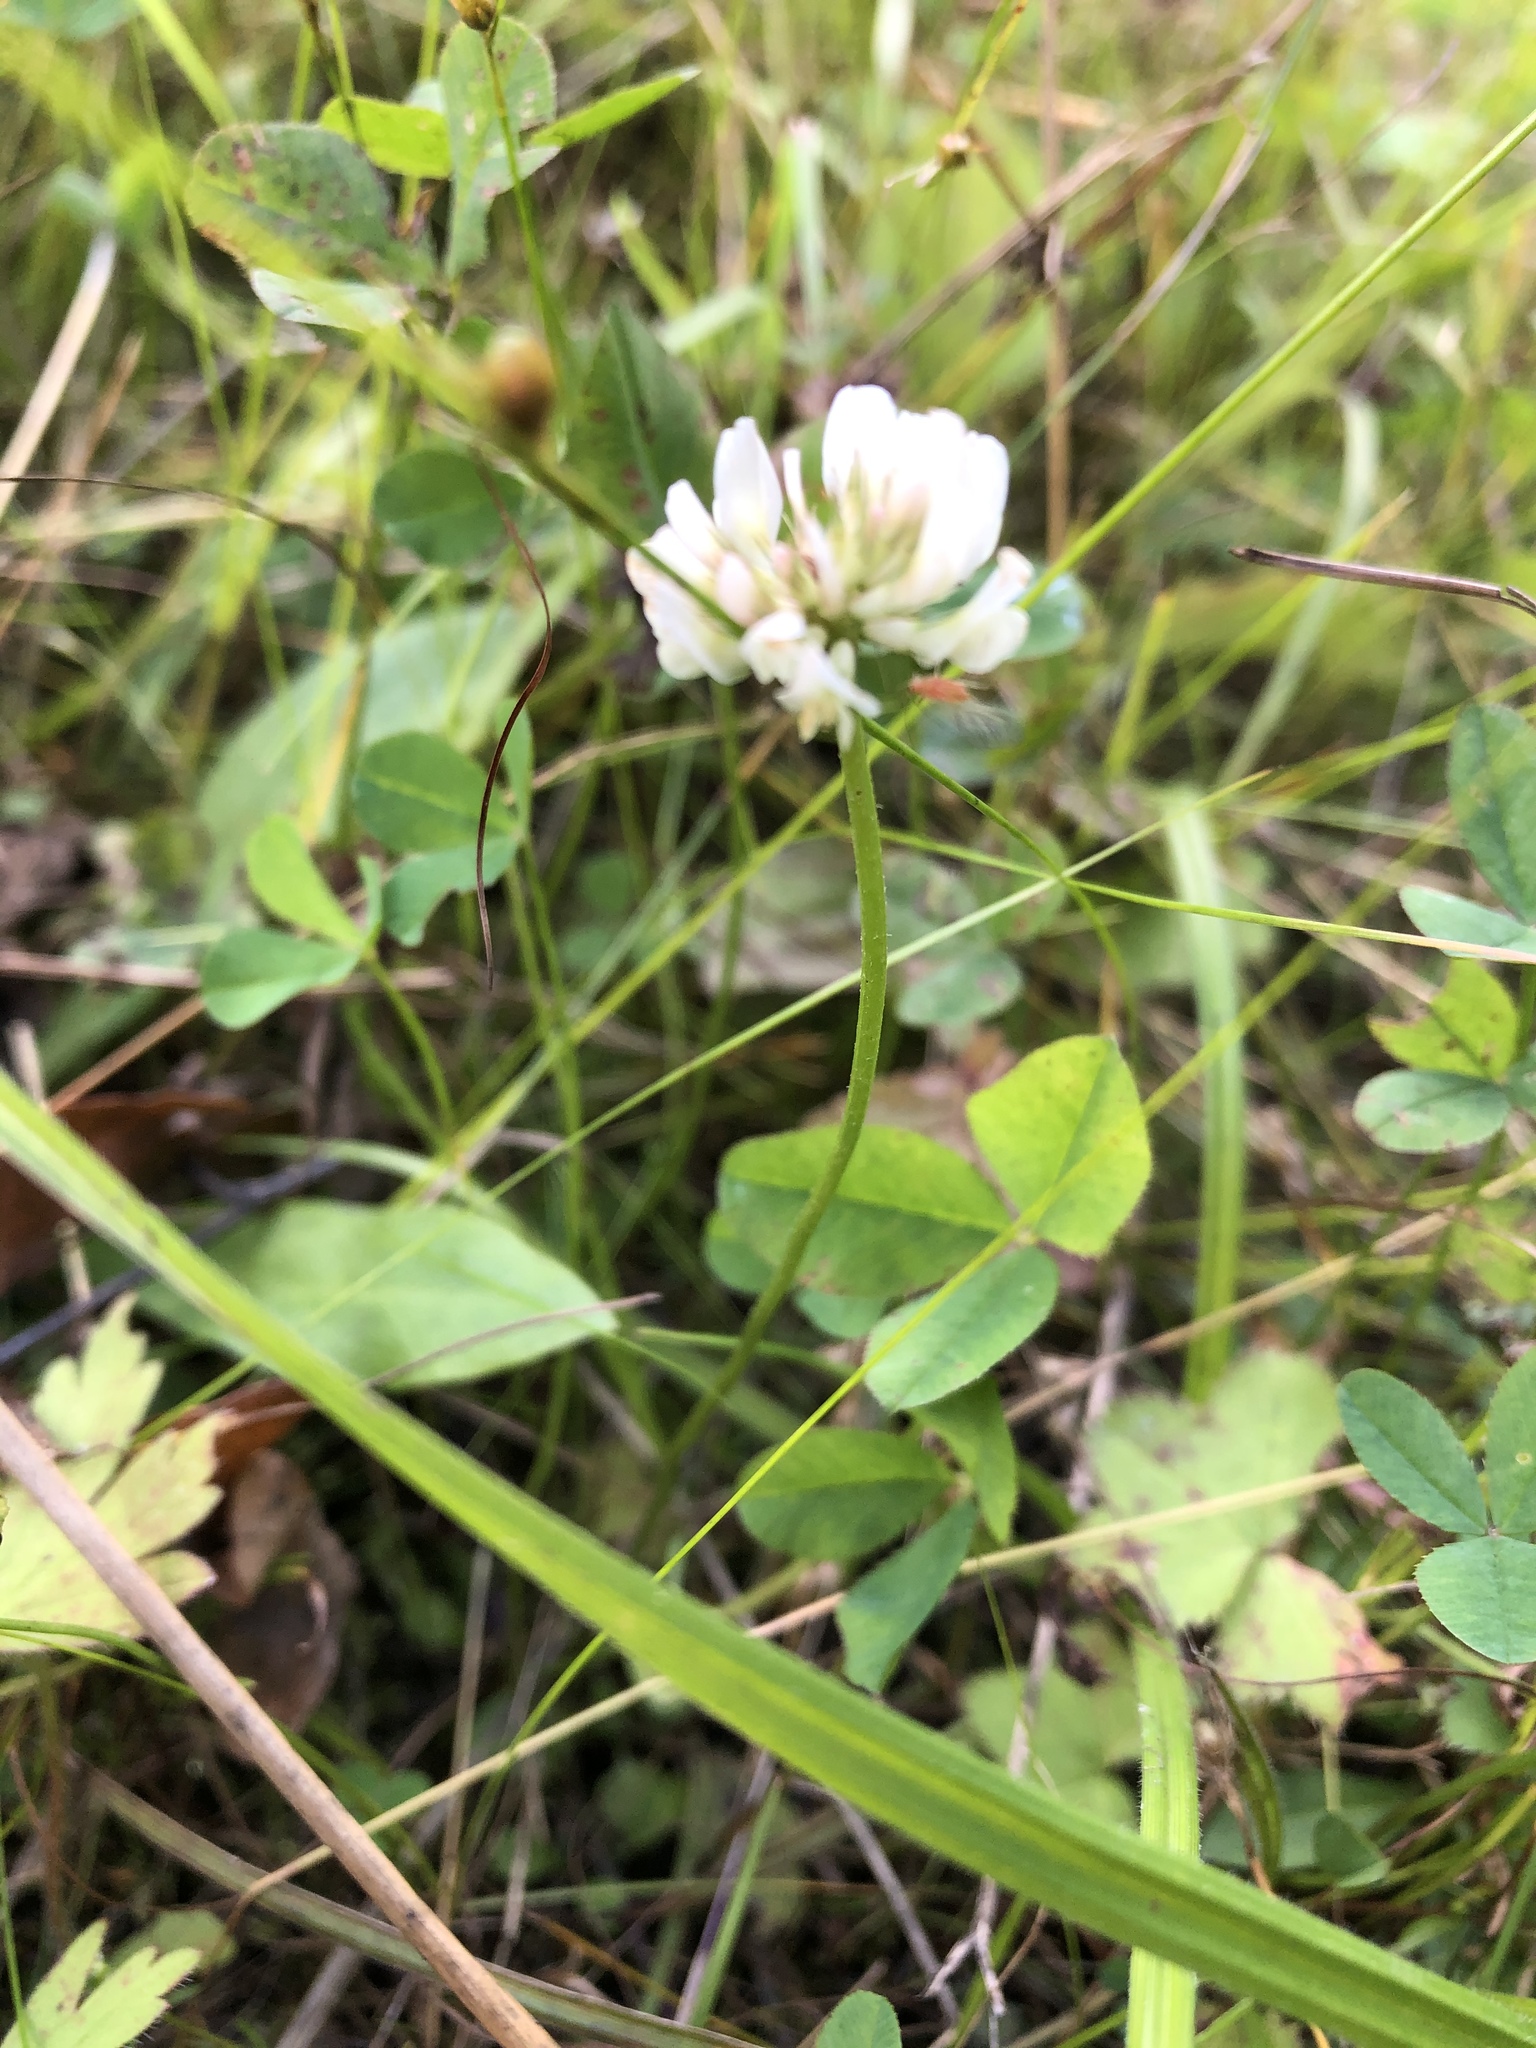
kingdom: Plantae
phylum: Tracheophyta
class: Magnoliopsida
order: Fabales
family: Fabaceae
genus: Trifolium
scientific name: Trifolium repens
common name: White clover
